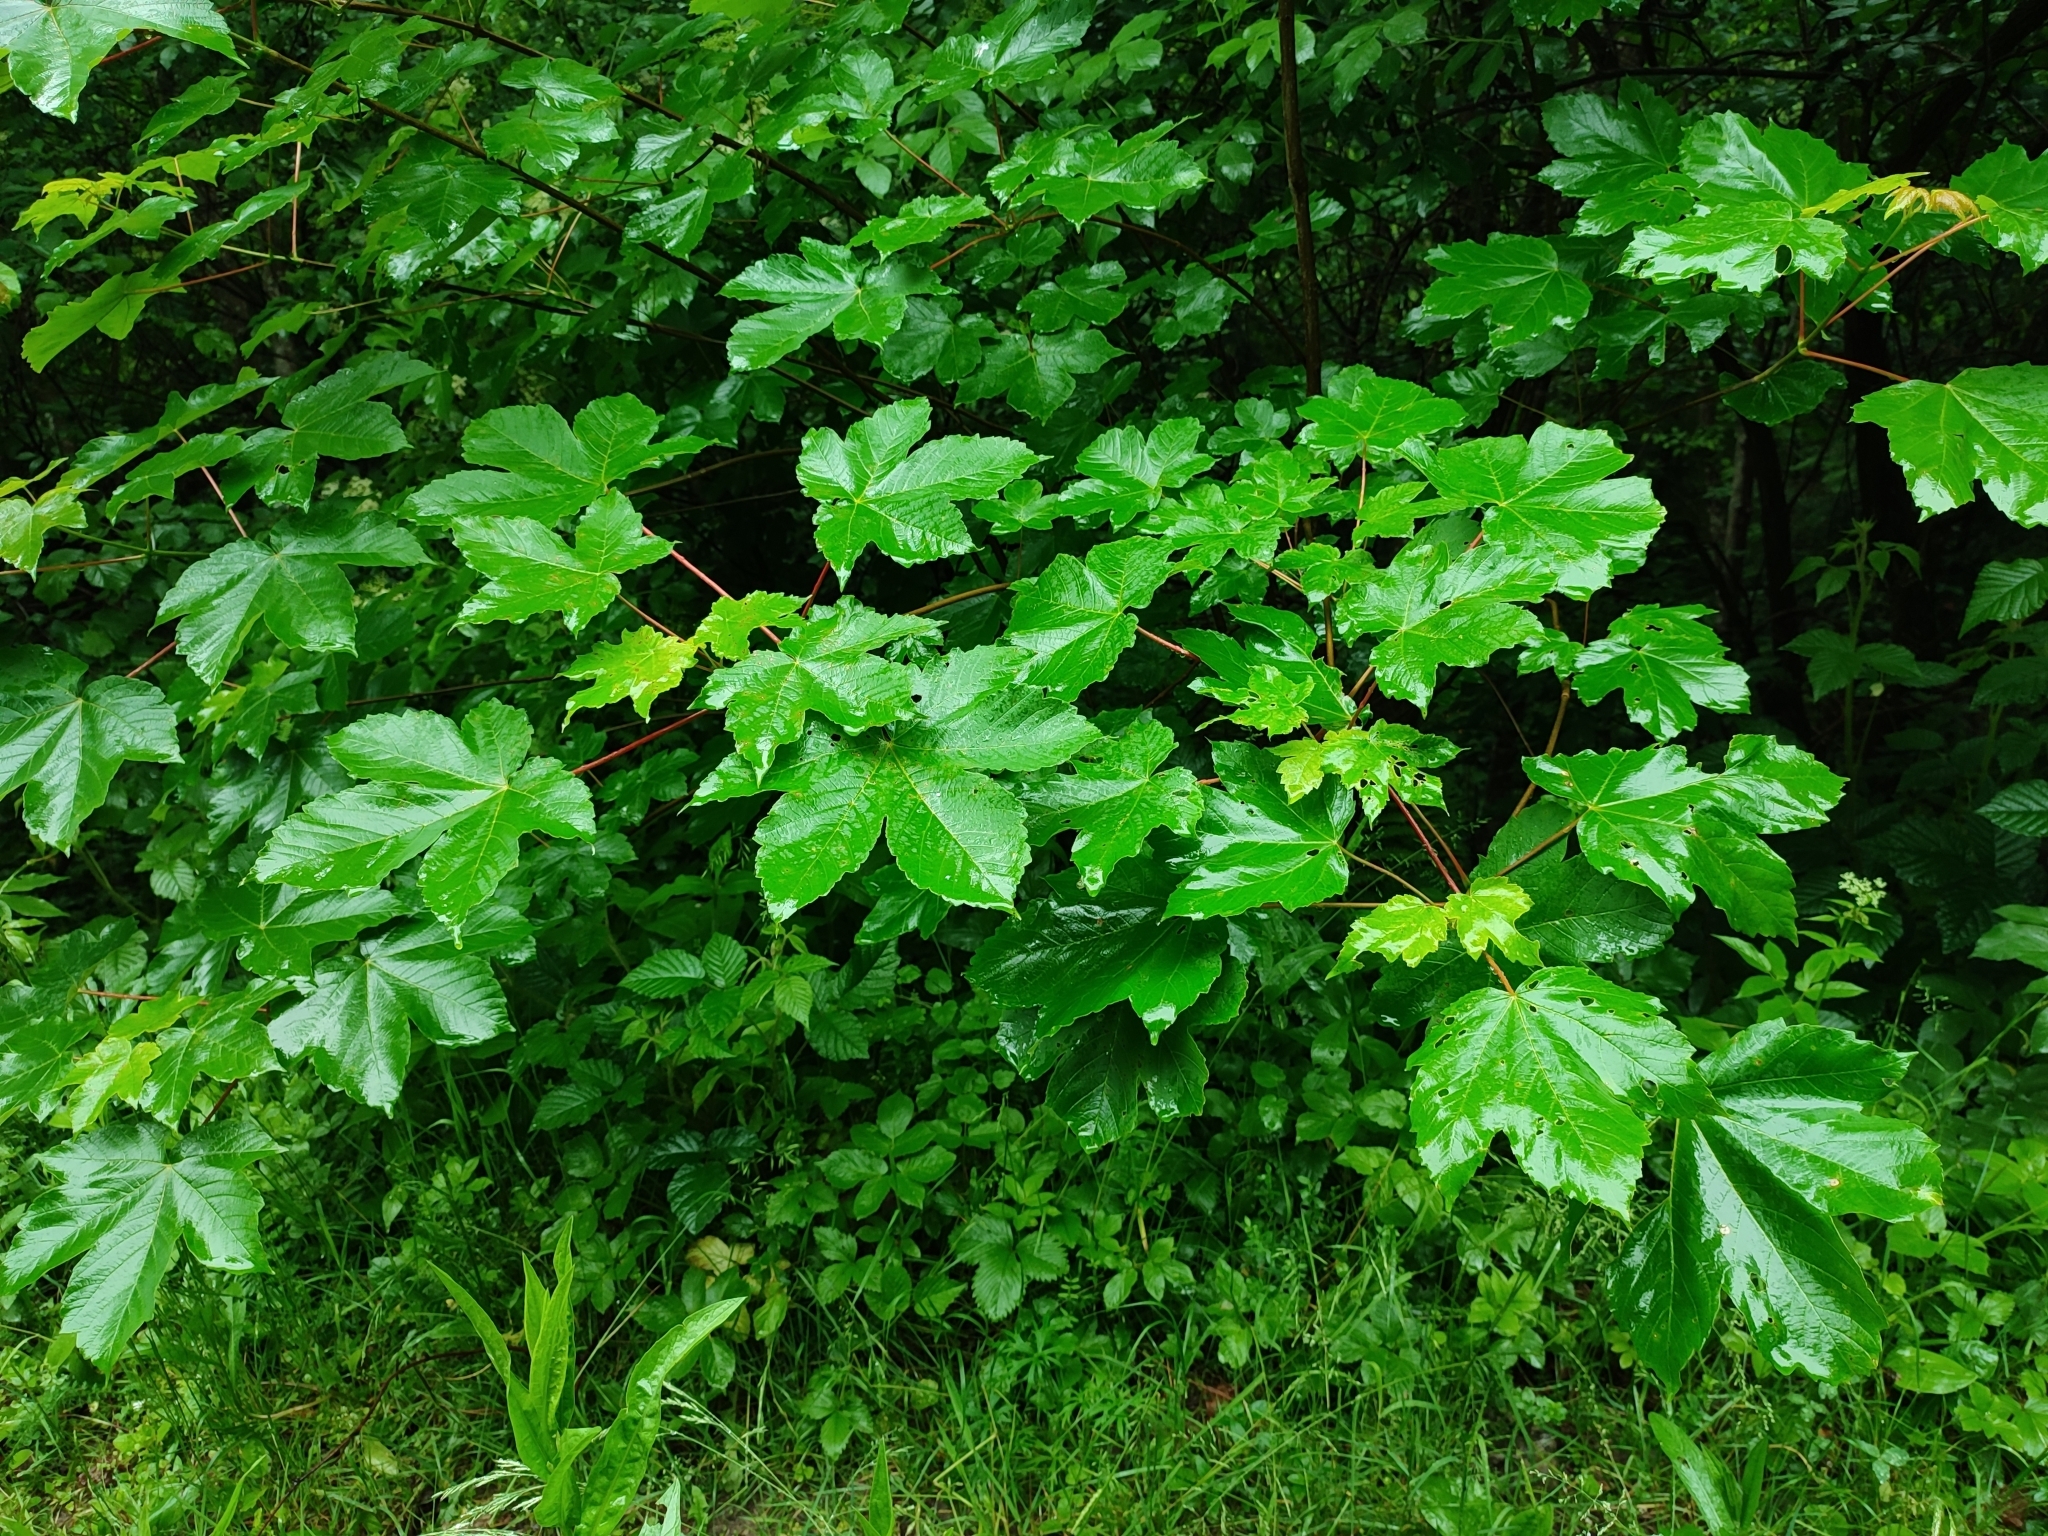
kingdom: Plantae
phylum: Tracheophyta
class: Magnoliopsida
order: Sapindales
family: Sapindaceae
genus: Acer
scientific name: Acer pseudoplatanus
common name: Sycamore
